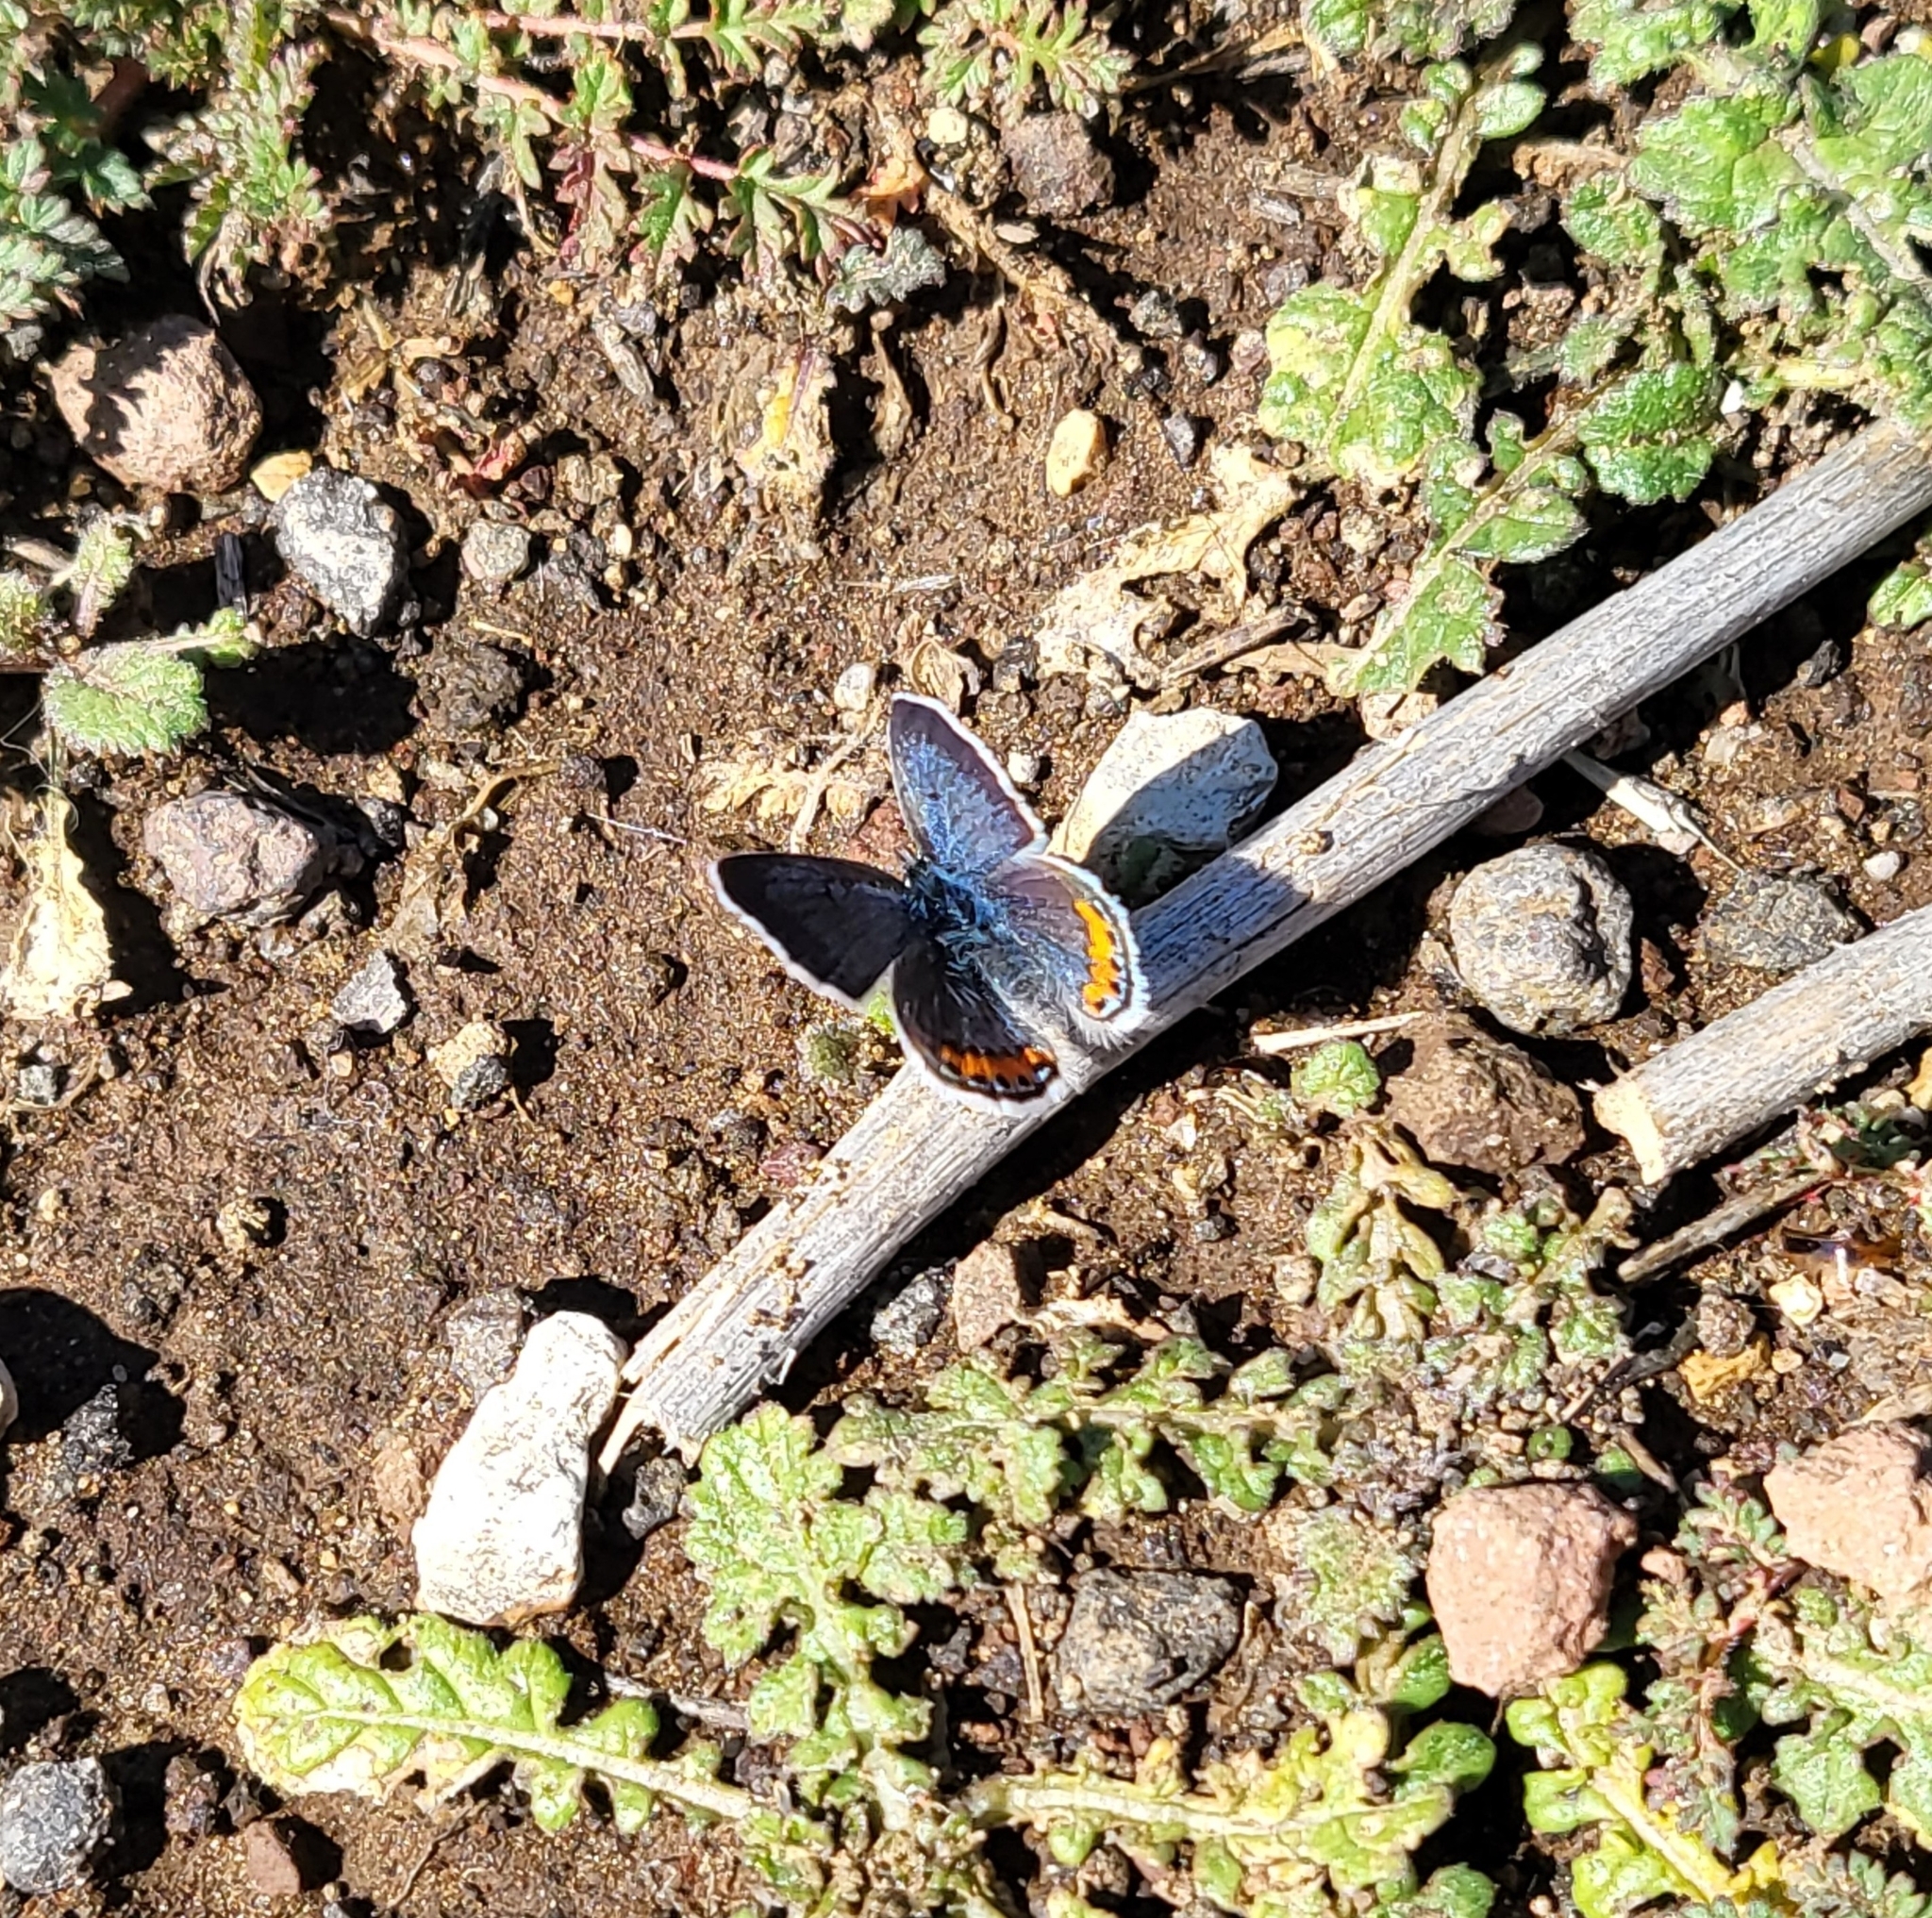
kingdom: Animalia
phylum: Arthropoda
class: Insecta
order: Lepidoptera
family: Lycaenidae
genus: Icaricia
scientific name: Icaricia acmon
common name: Acmon blue
